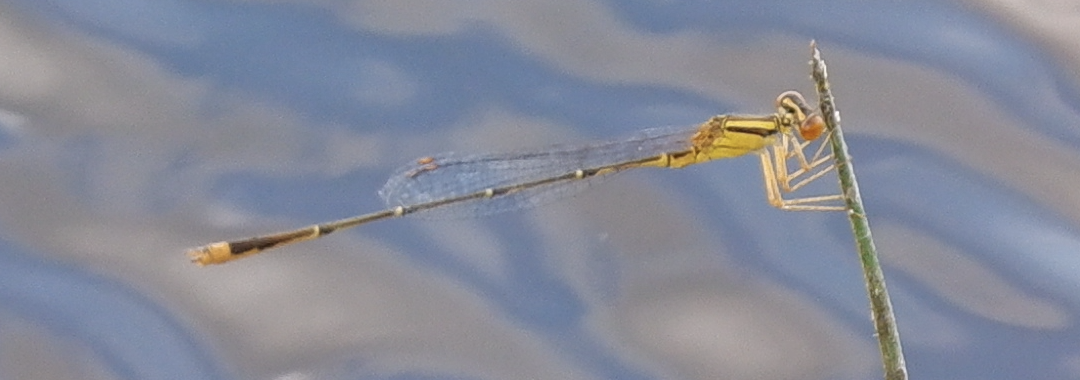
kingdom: Animalia
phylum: Arthropoda
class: Insecta
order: Odonata
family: Coenagrionidae
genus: Enallagma
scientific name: Enallagma signatum
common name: Orange bluet
